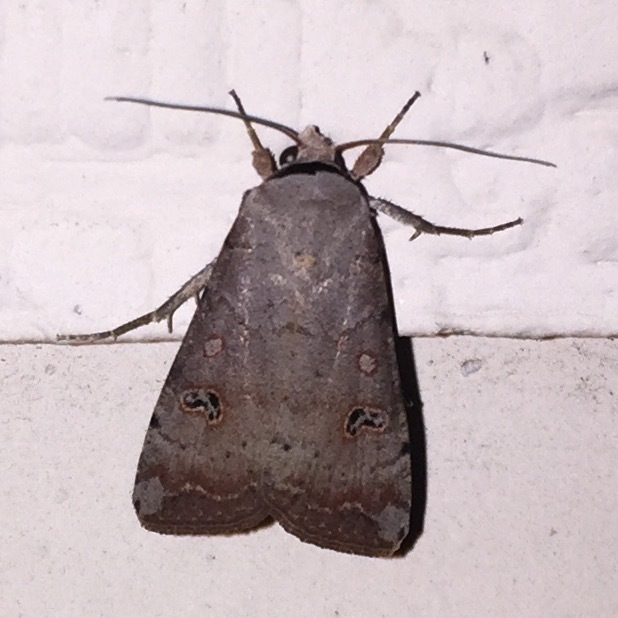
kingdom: Animalia
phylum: Arthropoda
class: Insecta
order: Lepidoptera
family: Noctuidae
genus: Anicla
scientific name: Anicla infecta
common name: Green cutworm
